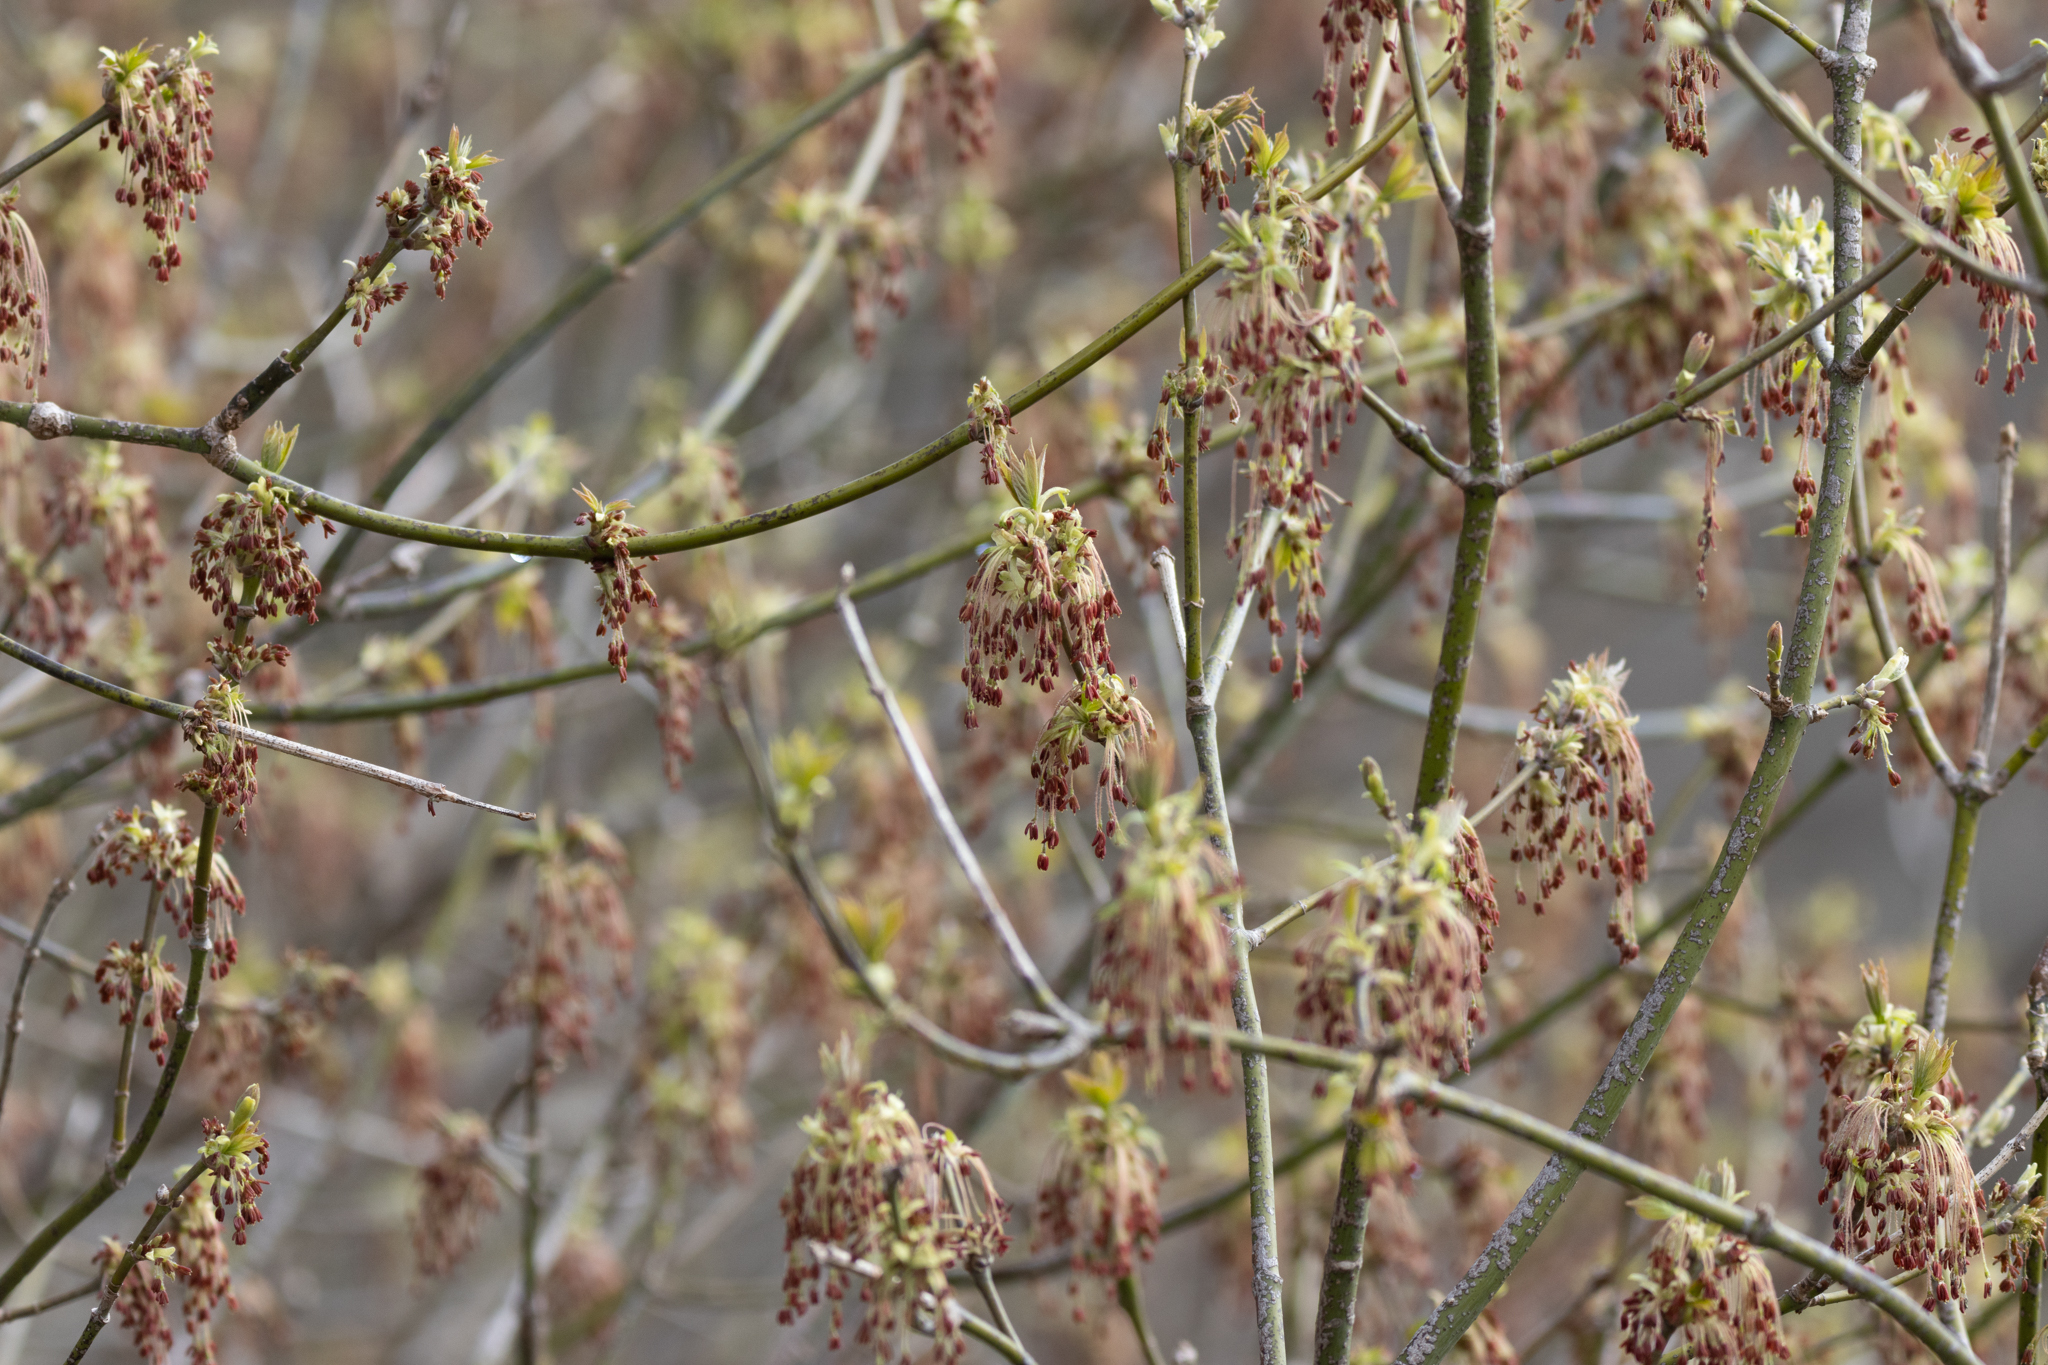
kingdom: Plantae
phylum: Tracheophyta
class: Magnoliopsida
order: Sapindales
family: Sapindaceae
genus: Acer
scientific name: Acer negundo
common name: Ashleaf maple
